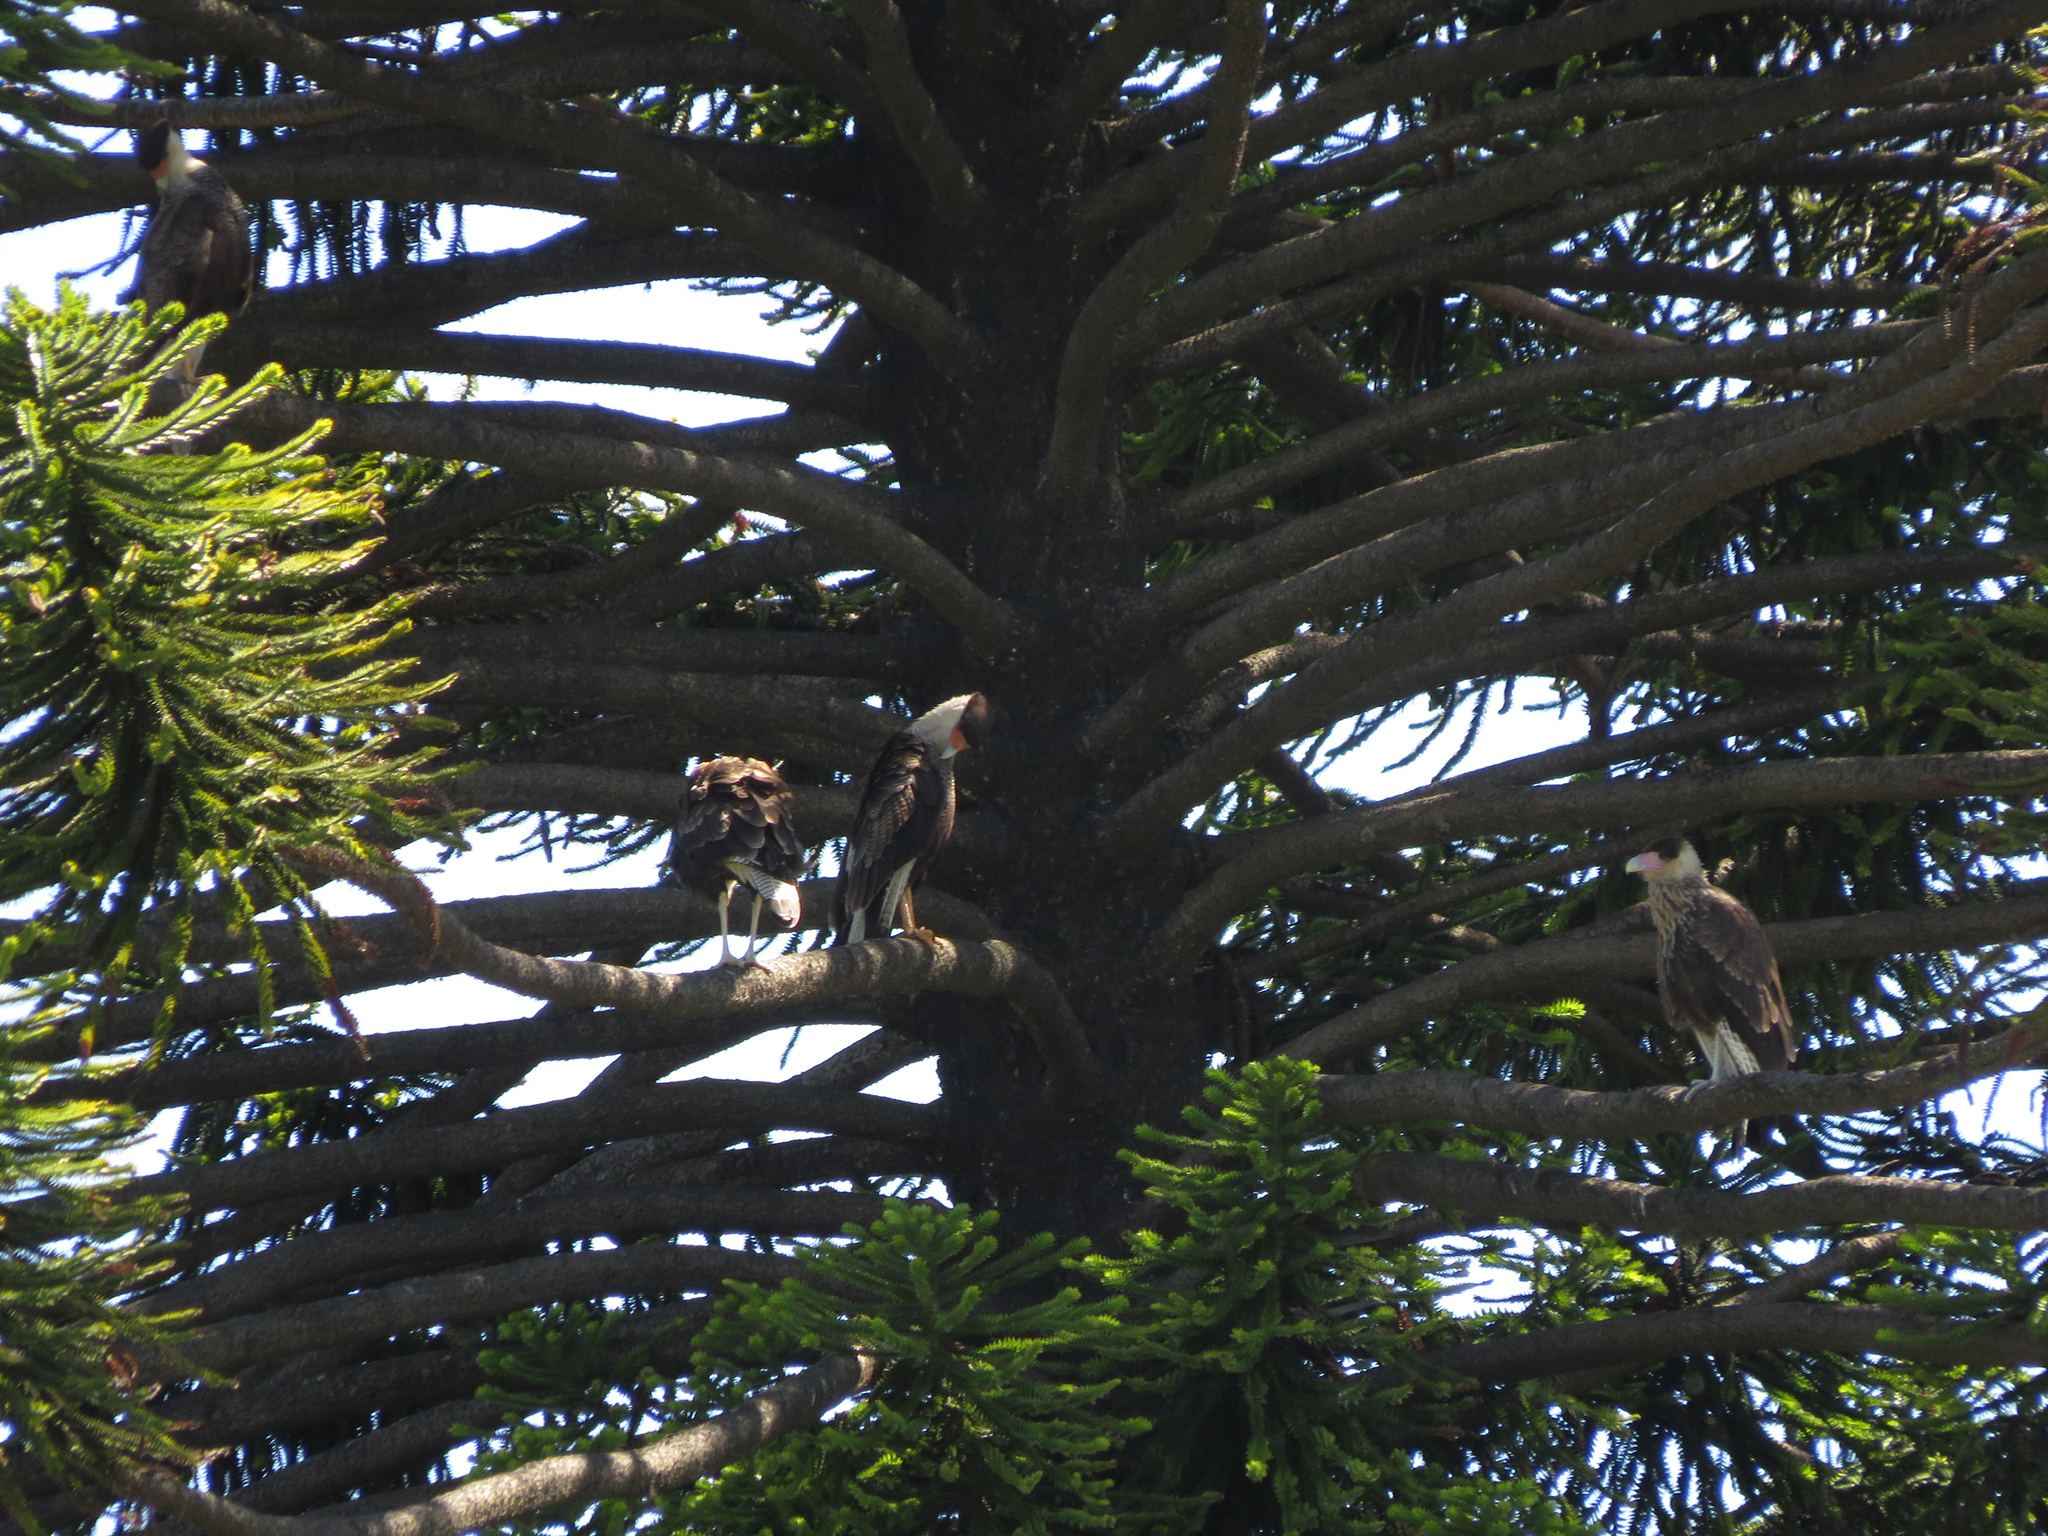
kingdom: Animalia
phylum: Chordata
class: Aves
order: Falconiformes
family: Falconidae
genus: Caracara
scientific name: Caracara plancus
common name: Southern caracara
